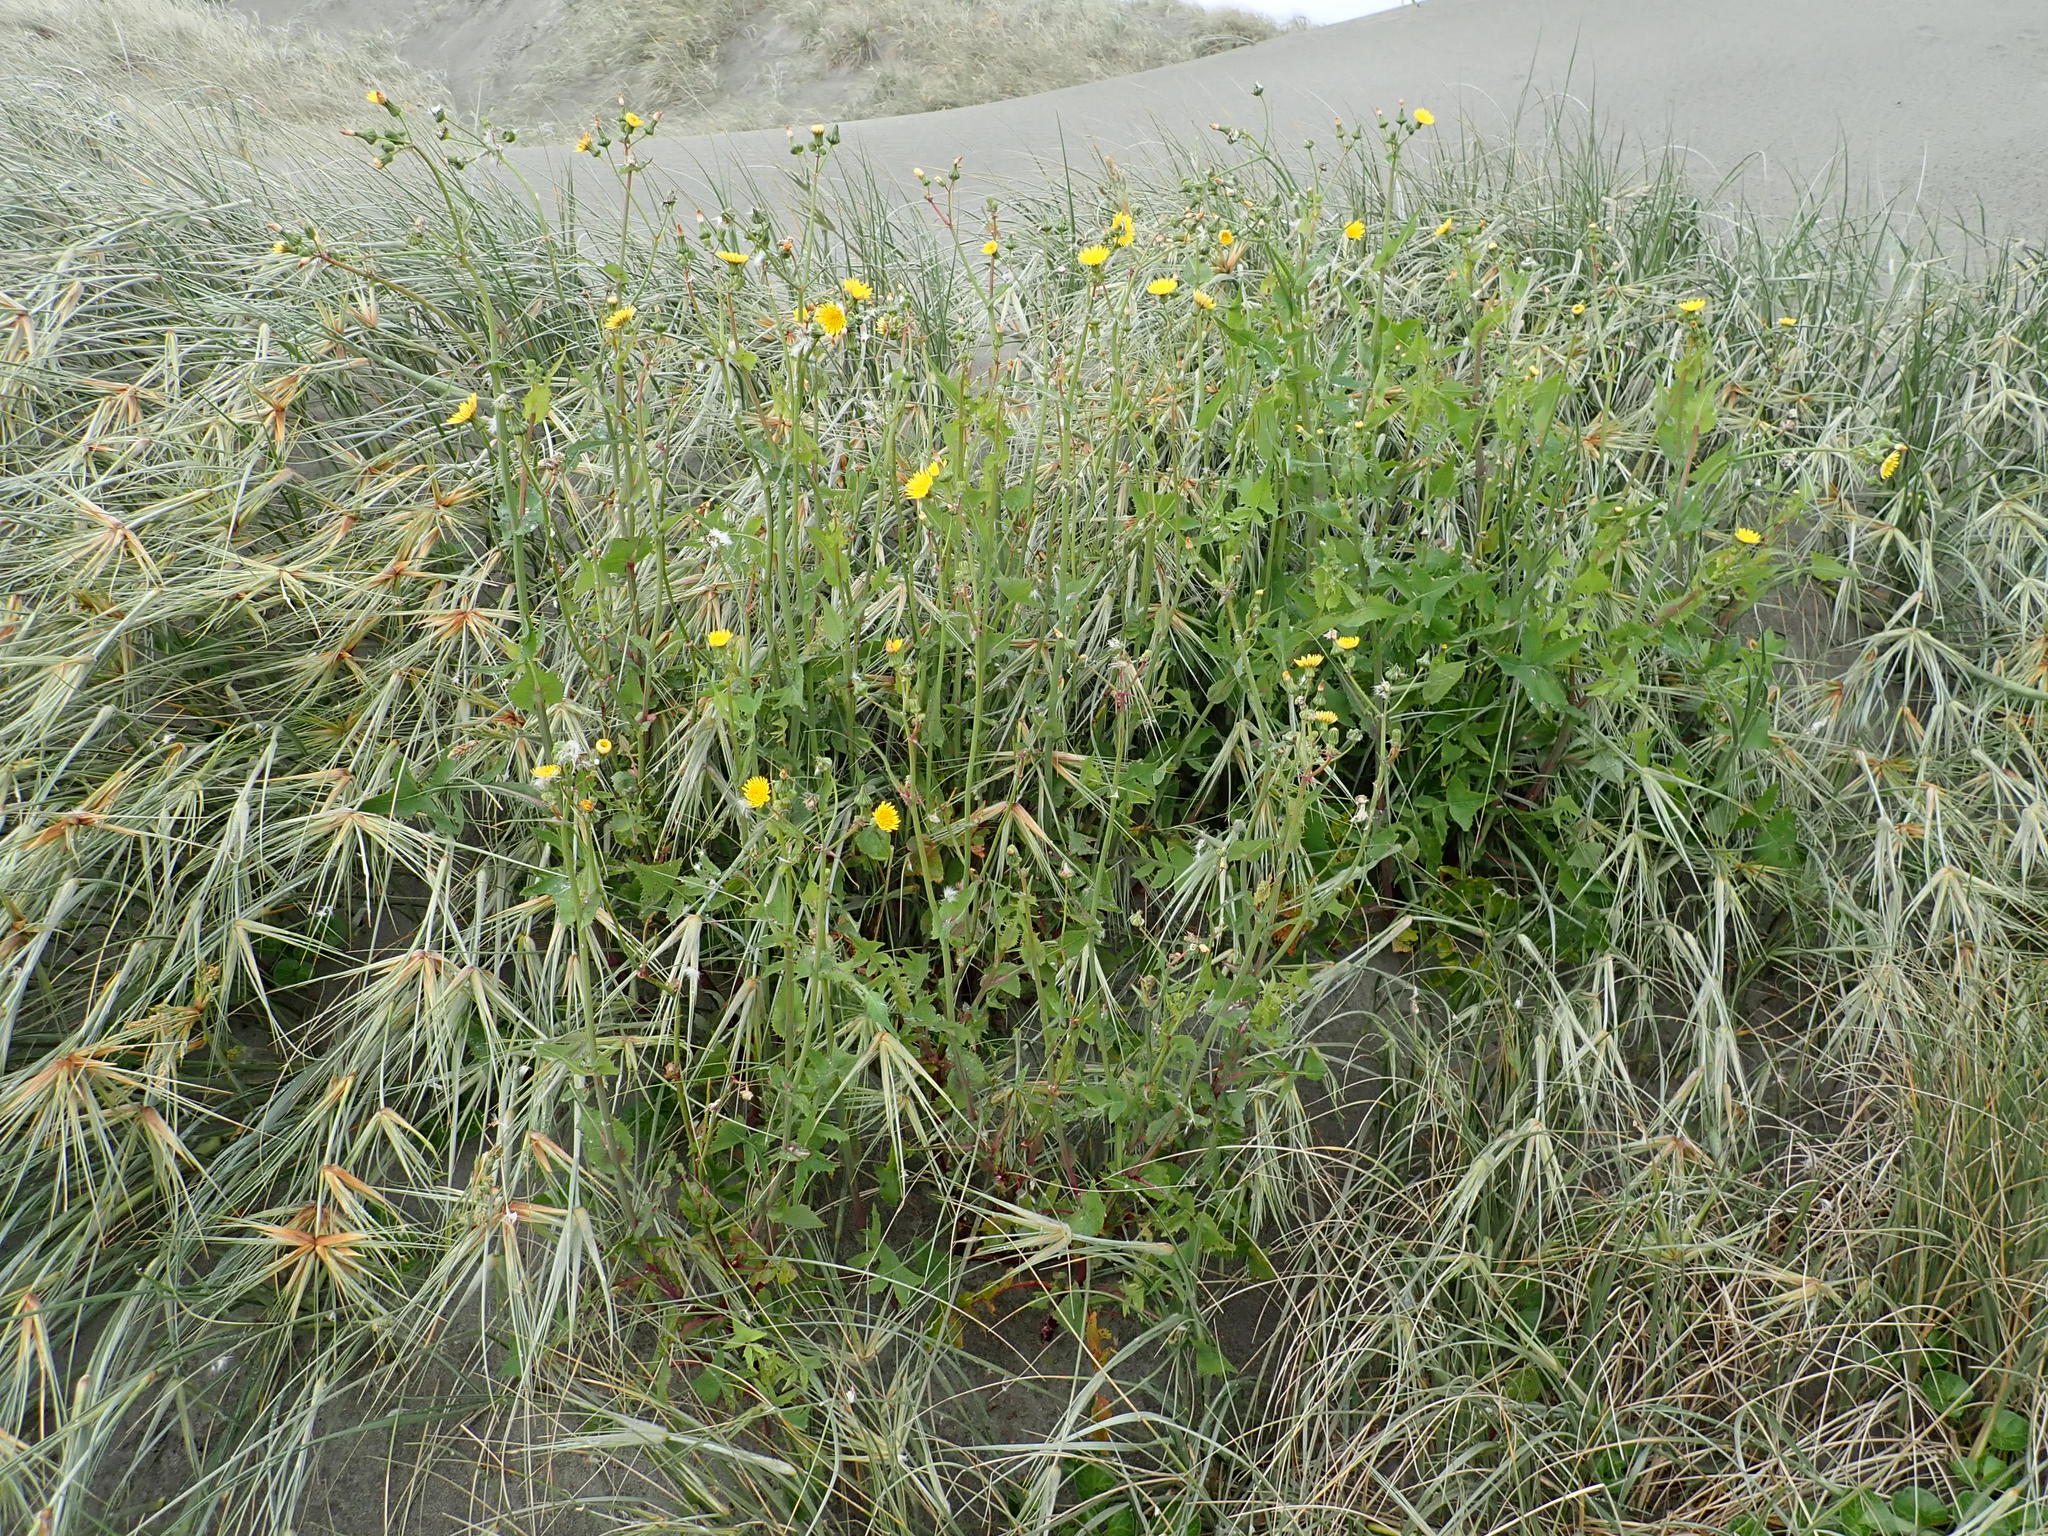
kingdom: Plantae
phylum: Tracheophyta
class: Magnoliopsida
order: Asterales
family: Asteraceae
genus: Sonchus
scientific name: Sonchus oleraceus
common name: Common sowthistle
